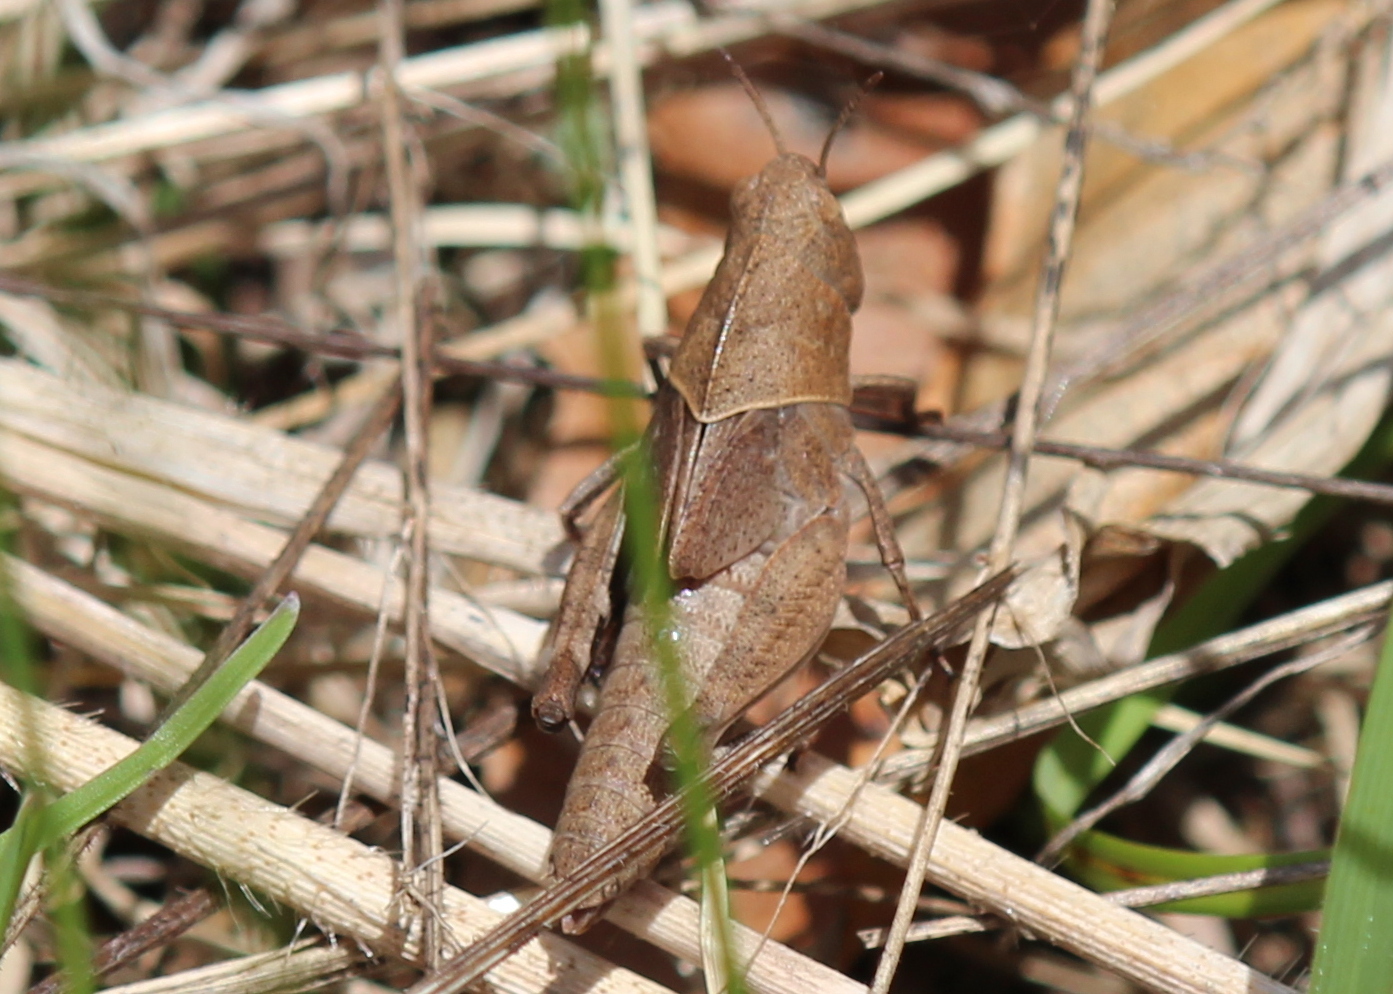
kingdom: Animalia
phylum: Arthropoda
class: Insecta
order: Orthoptera
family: Acrididae
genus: Arphia
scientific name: Arphia sulphurea
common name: Spring yellow-winged locust
